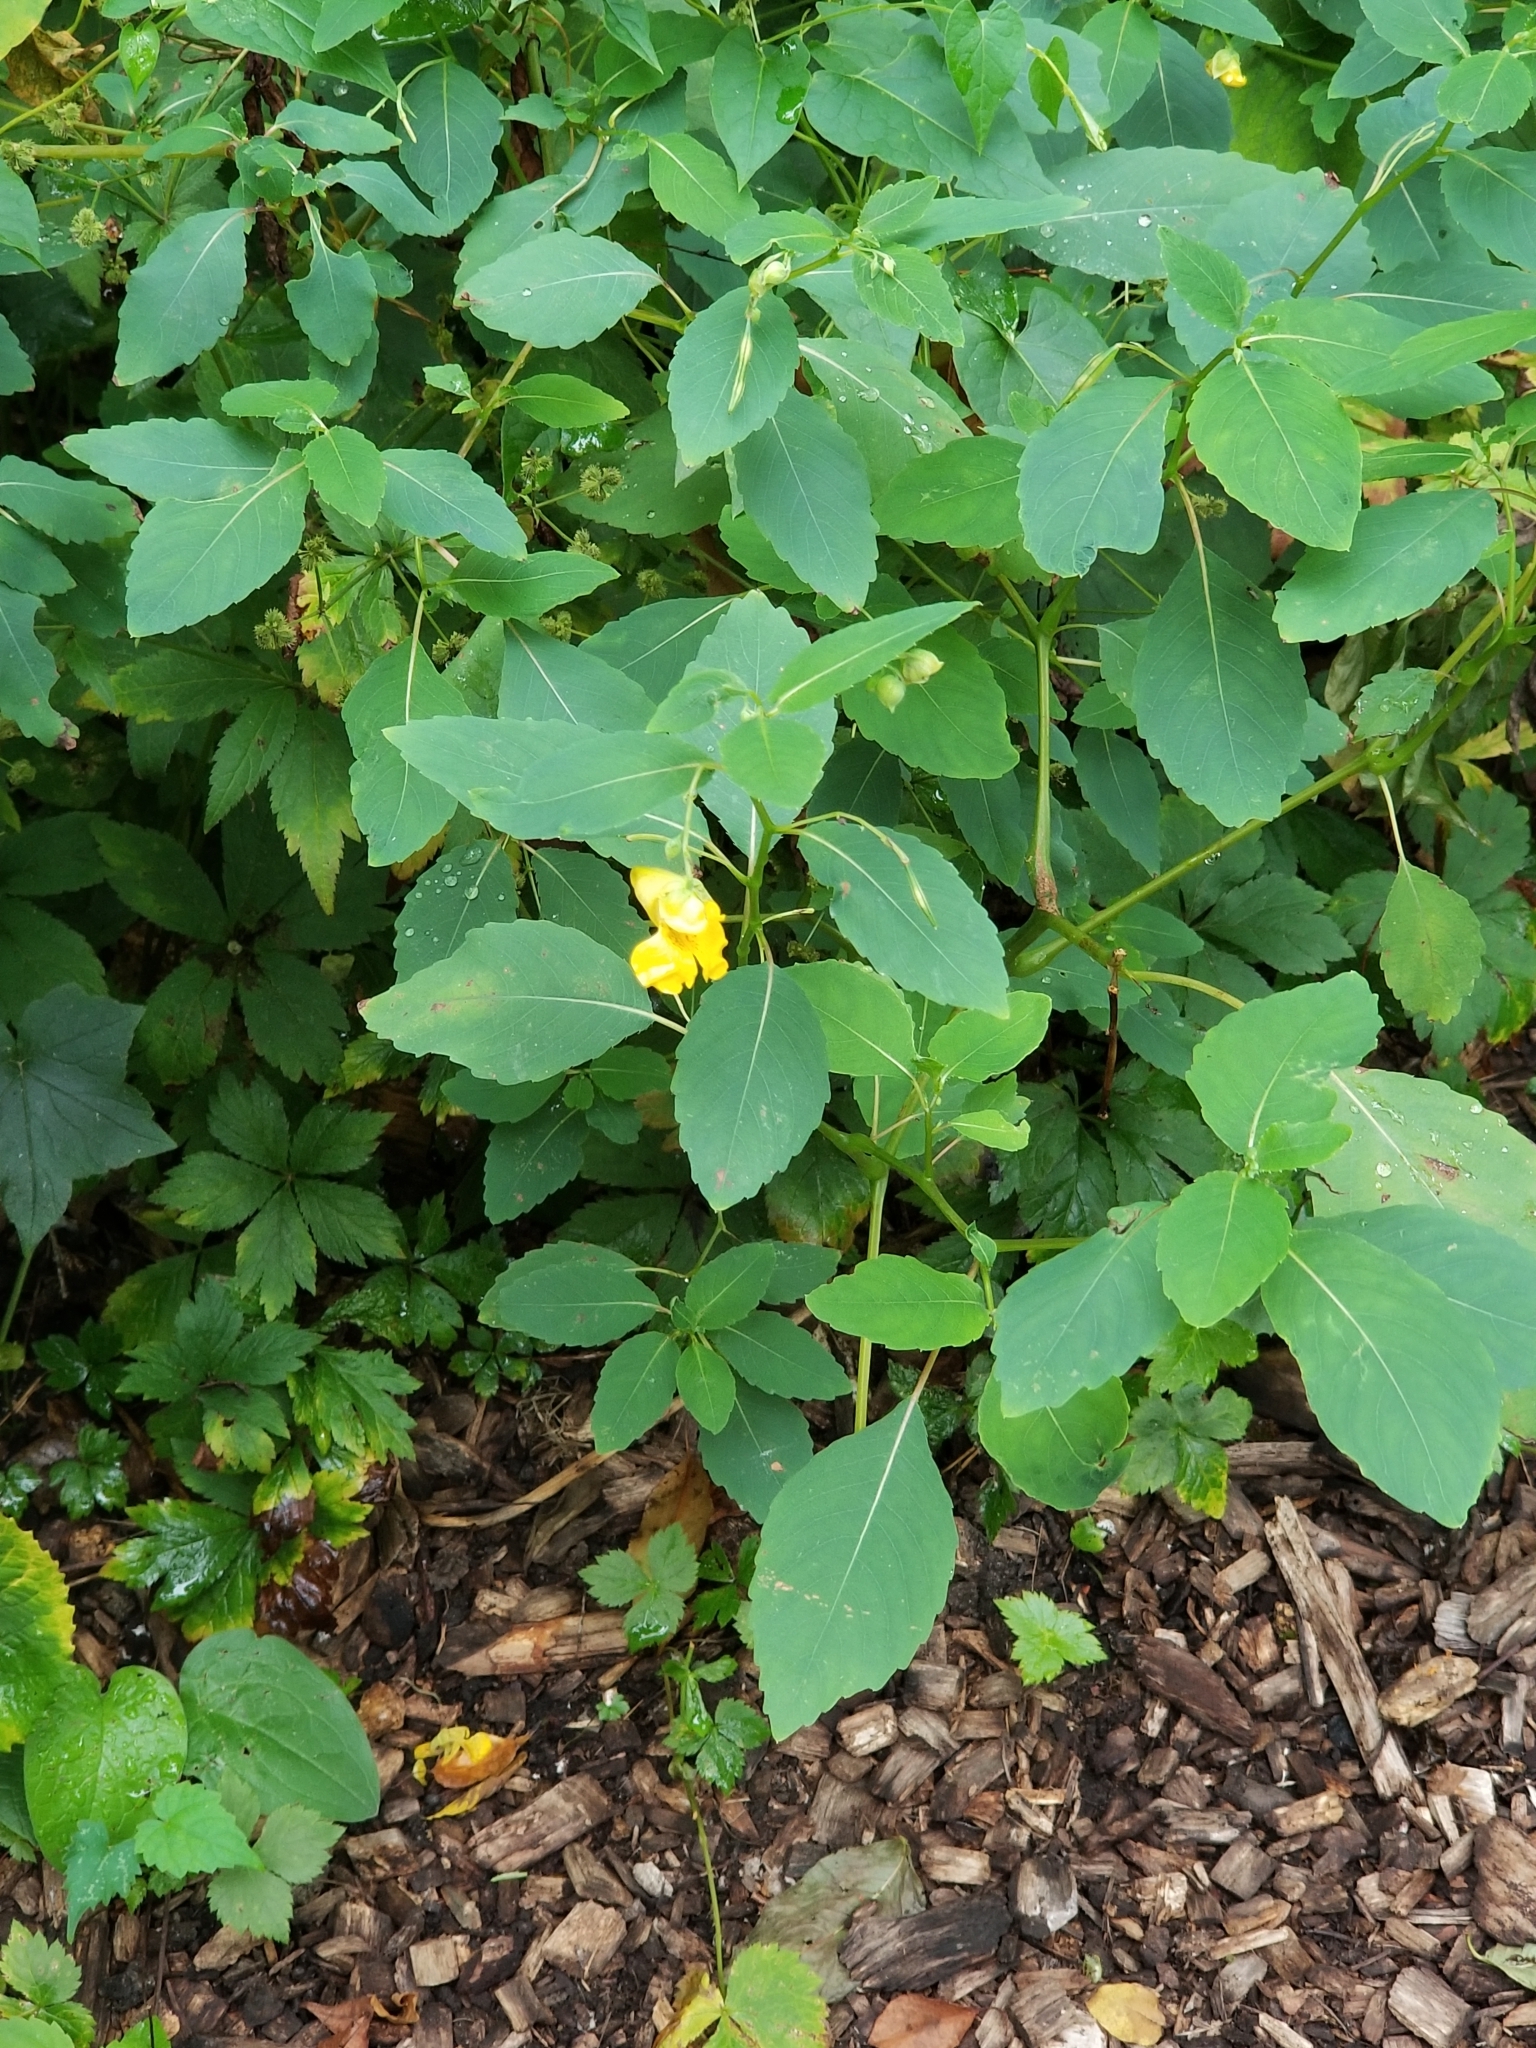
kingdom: Plantae
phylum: Tracheophyta
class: Magnoliopsida
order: Ericales
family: Balsaminaceae
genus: Impatiens
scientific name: Impatiens pallida
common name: Pale snapweed
